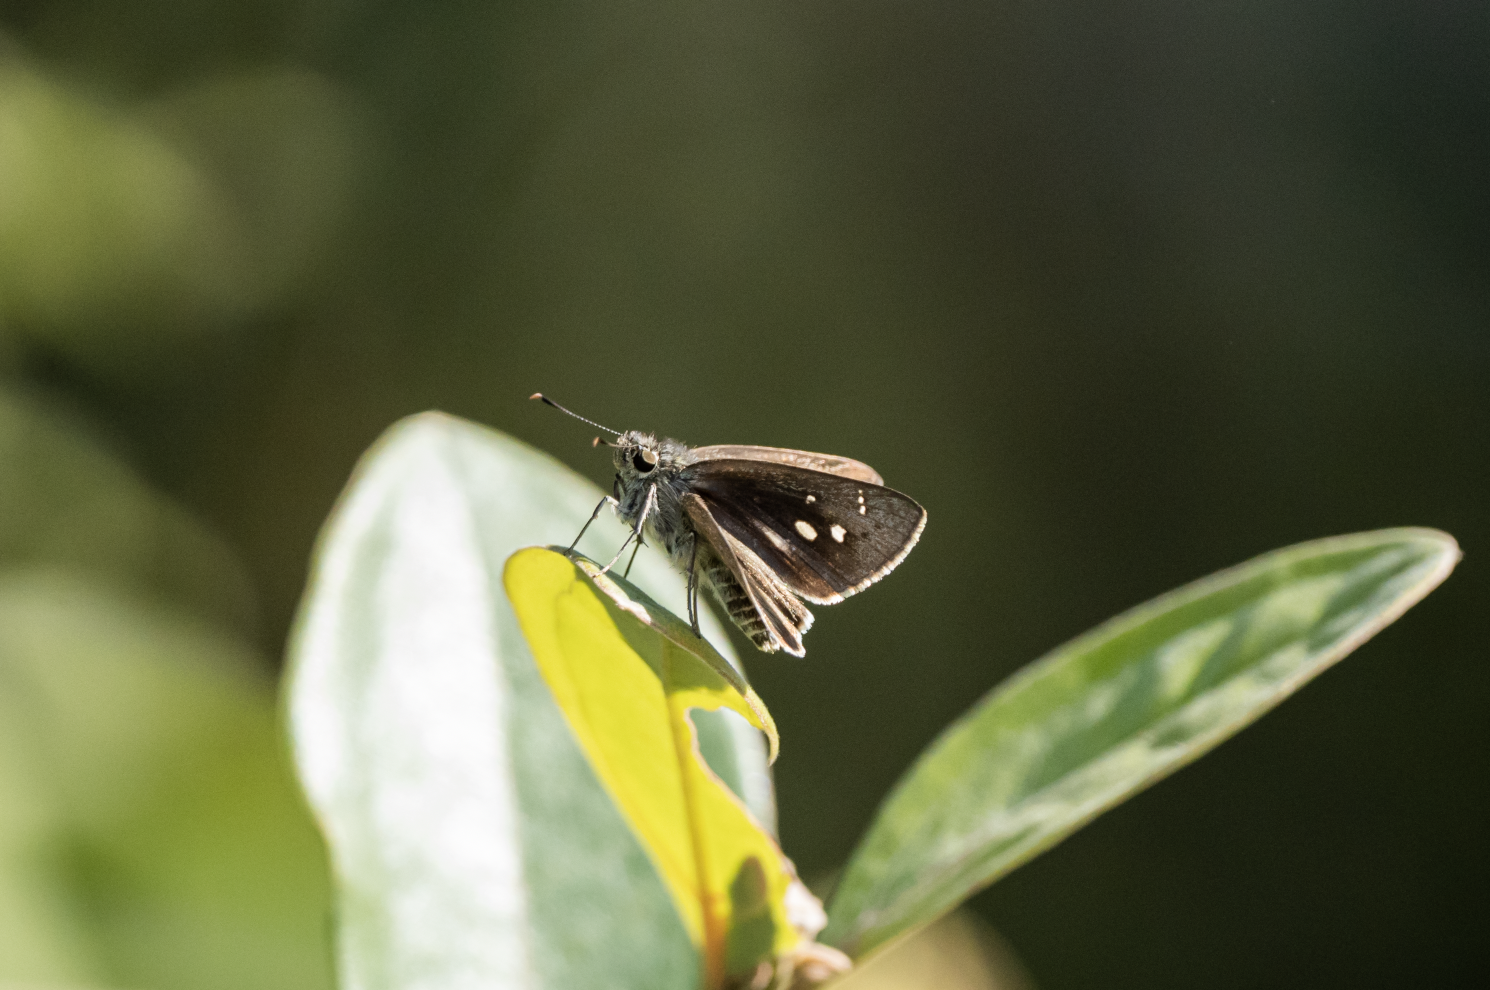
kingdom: Animalia
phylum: Arthropoda
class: Insecta
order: Lepidoptera
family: Hesperiidae
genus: Suastus
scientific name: Suastus gremius
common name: Indian palm bob
